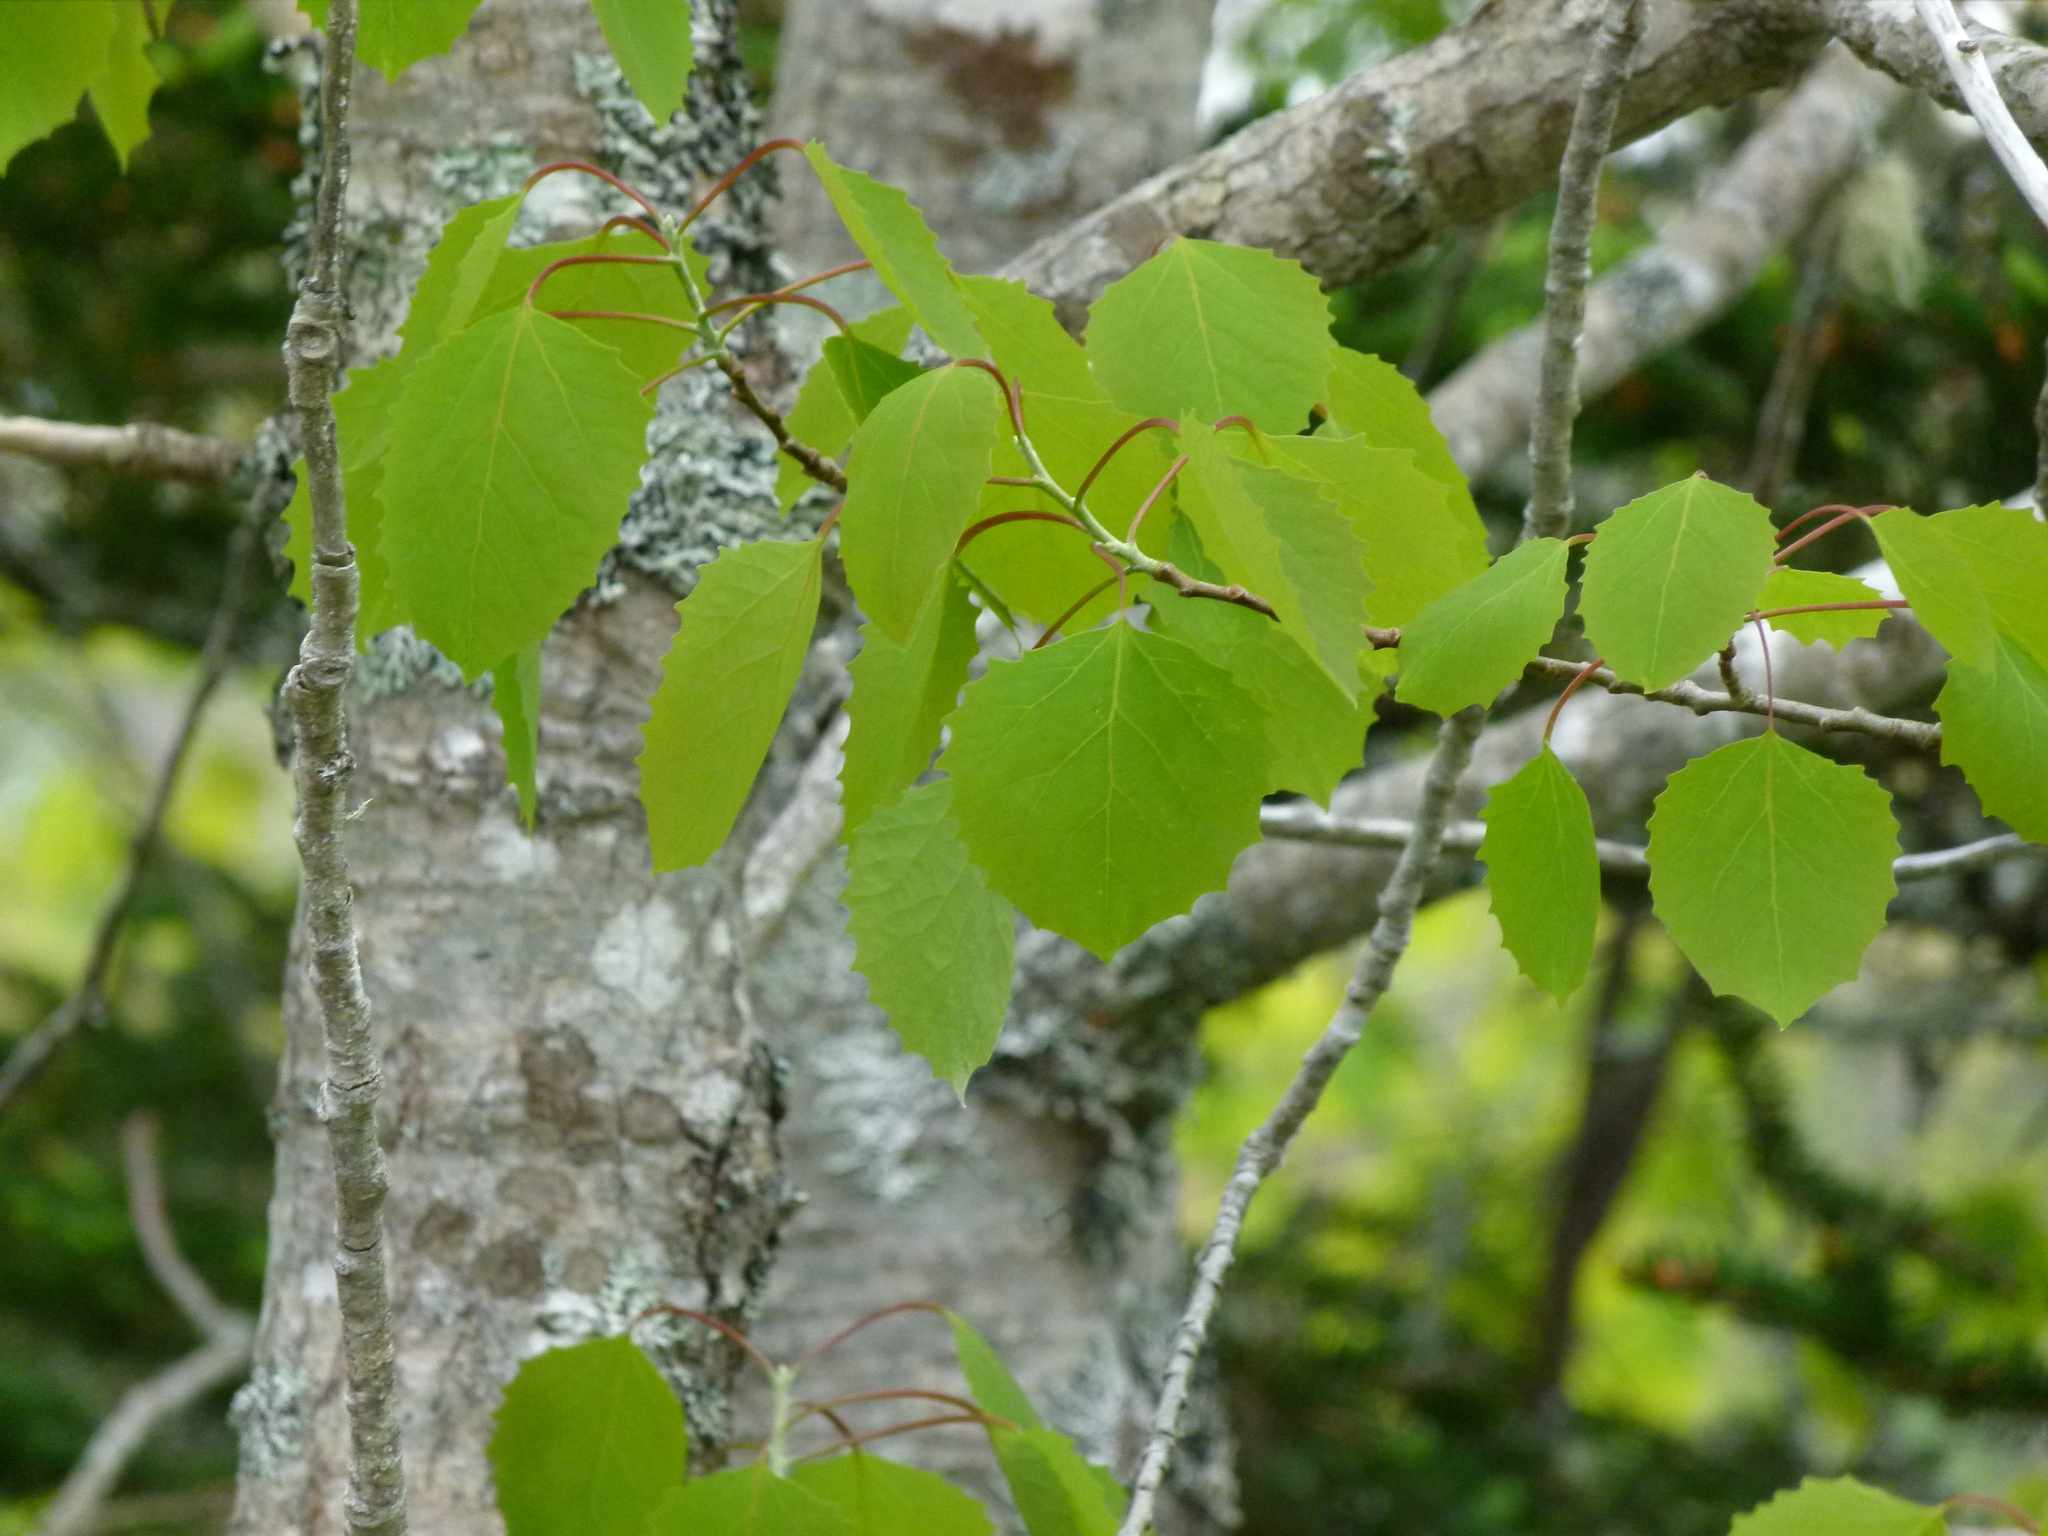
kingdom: Plantae
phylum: Tracheophyta
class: Magnoliopsida
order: Malpighiales
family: Salicaceae
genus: Populus
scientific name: Populus grandidentata
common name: Bigtooth aspen
